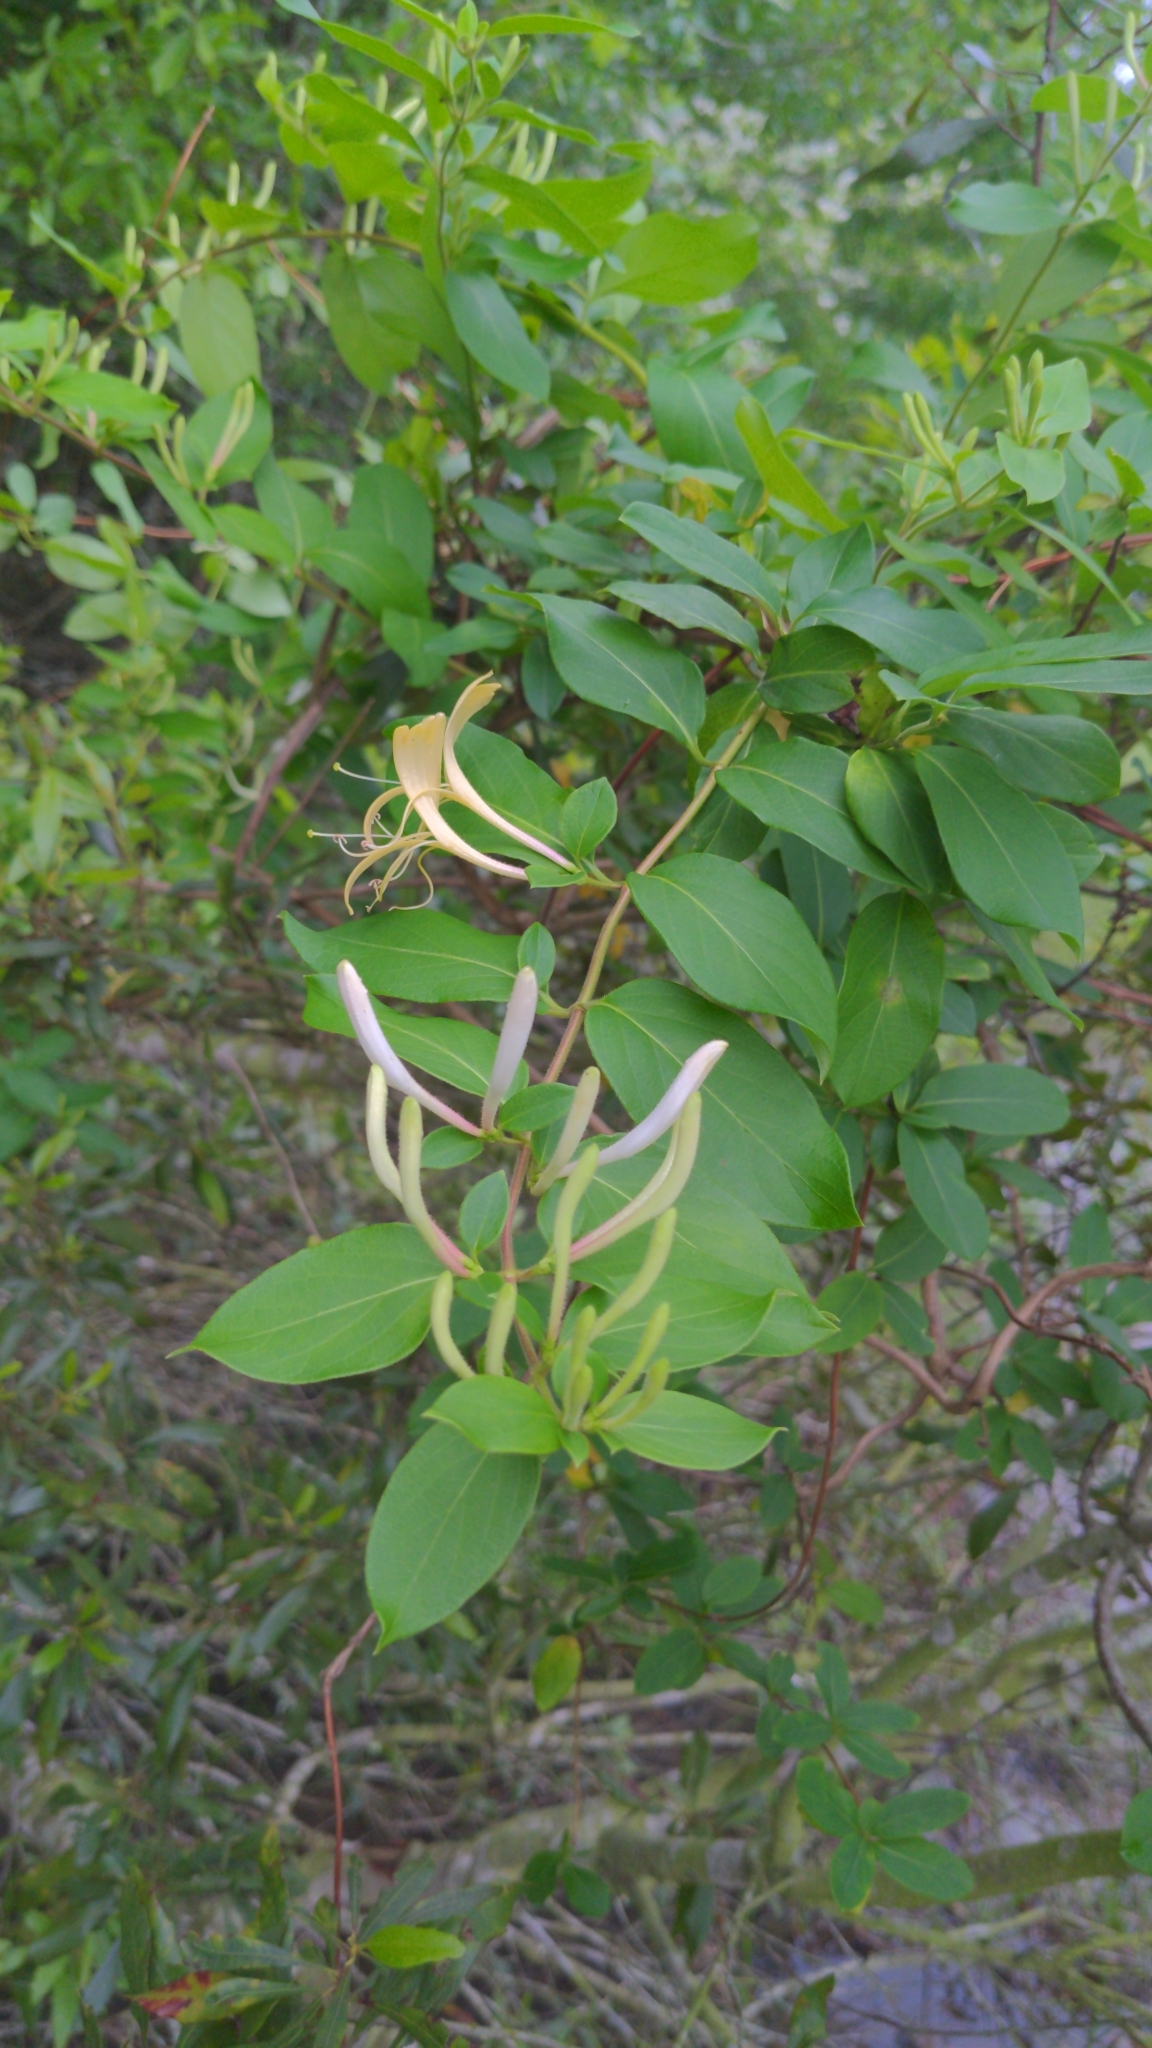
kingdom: Plantae
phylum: Tracheophyta
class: Magnoliopsida
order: Dipsacales
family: Caprifoliaceae
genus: Lonicera
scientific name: Lonicera japonica
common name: Japanese honeysuckle
